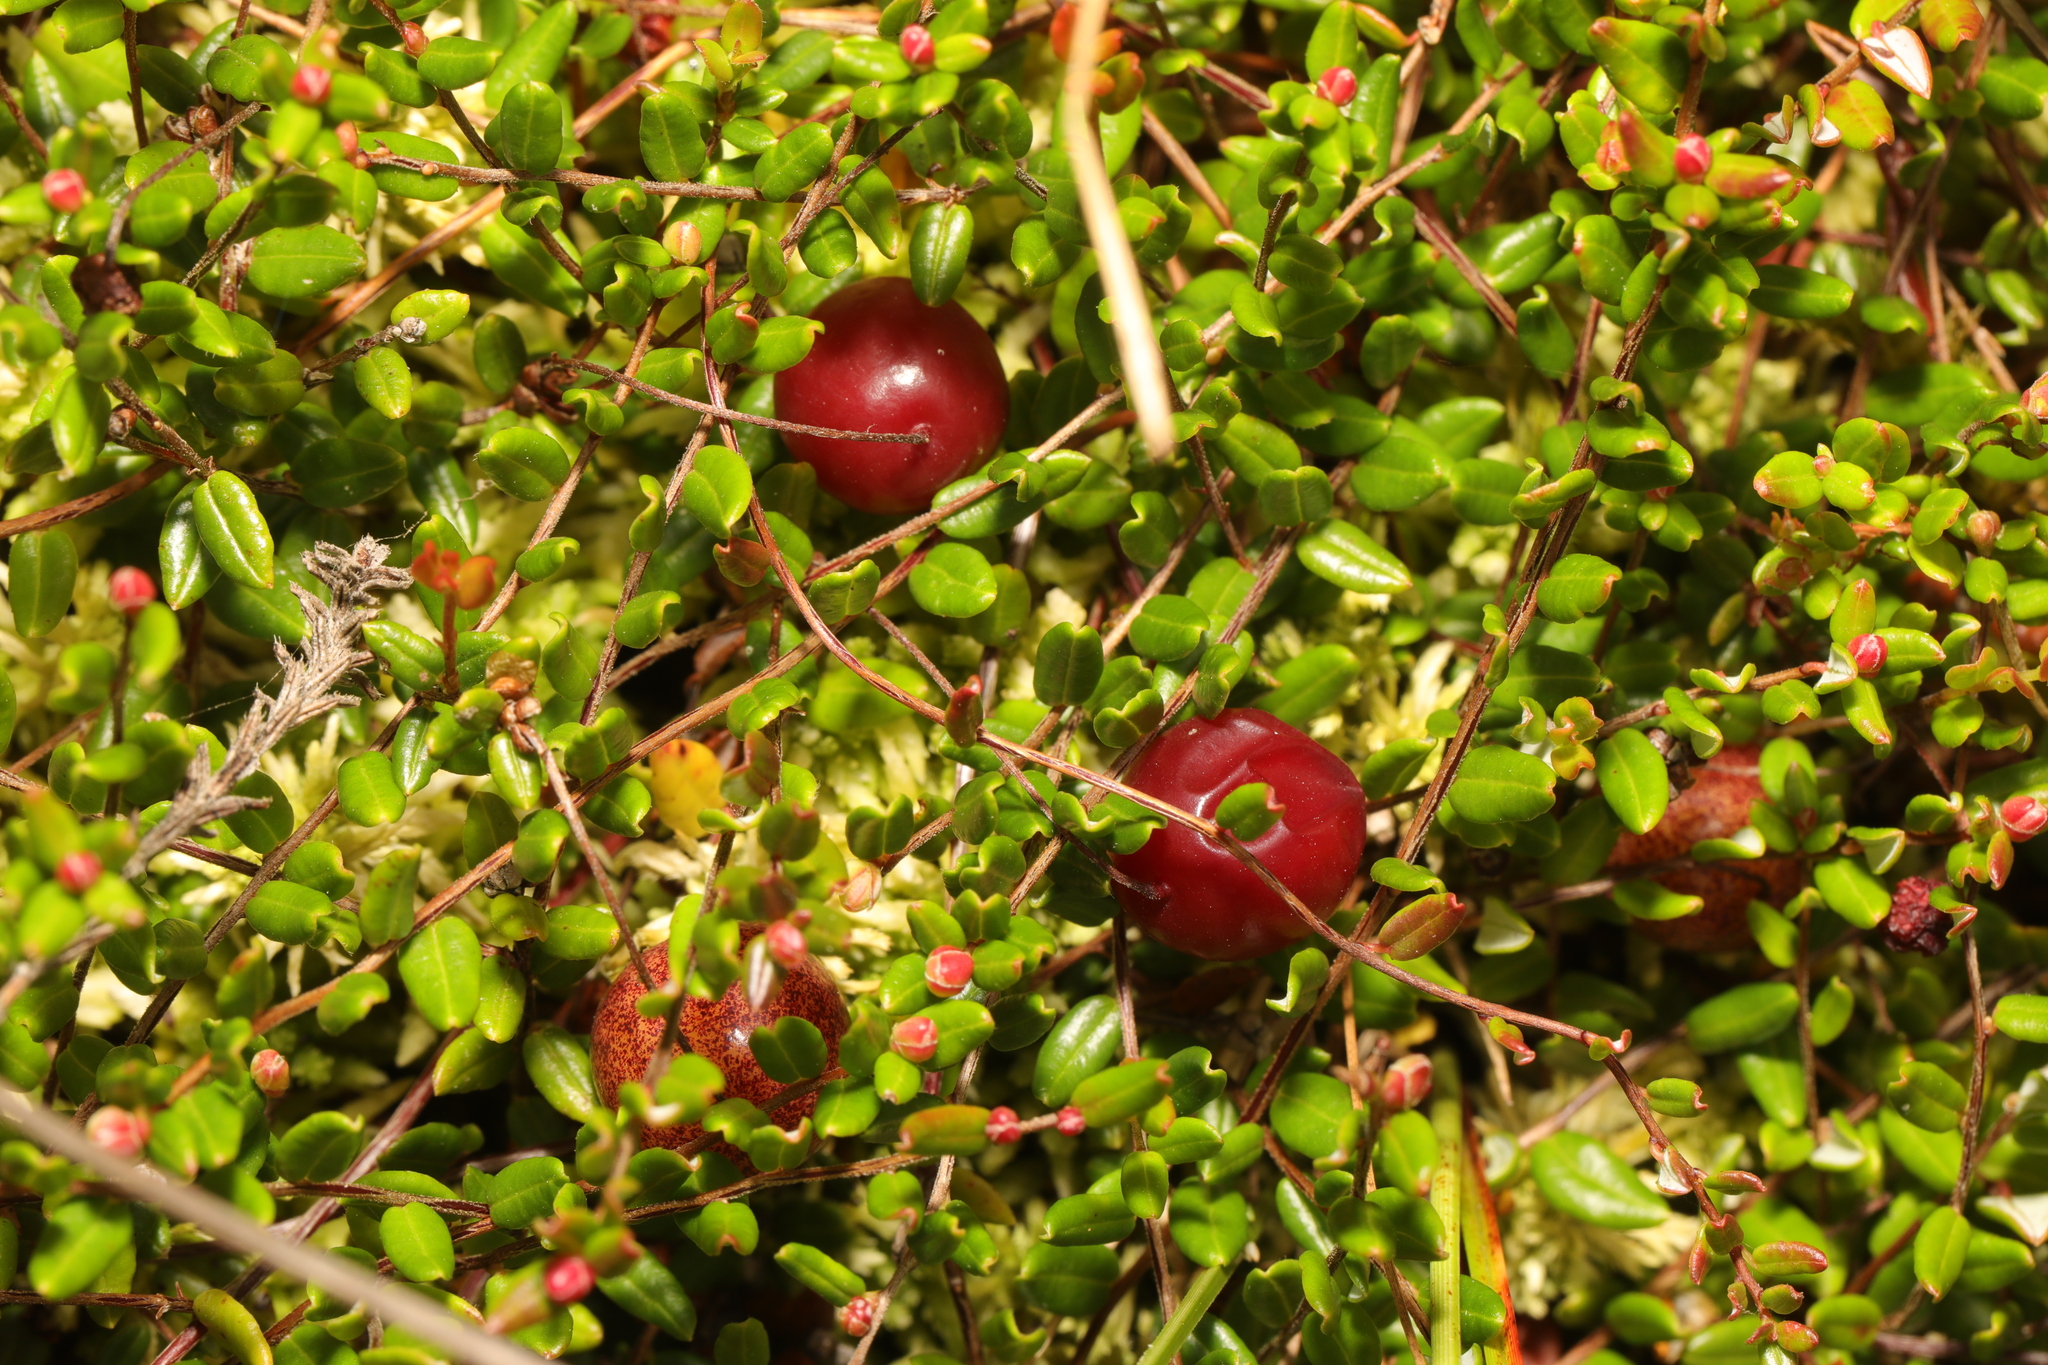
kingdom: Plantae
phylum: Tracheophyta
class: Magnoliopsida
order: Ericales
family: Ericaceae
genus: Vaccinium
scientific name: Vaccinium oxycoccos
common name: Cranberry
